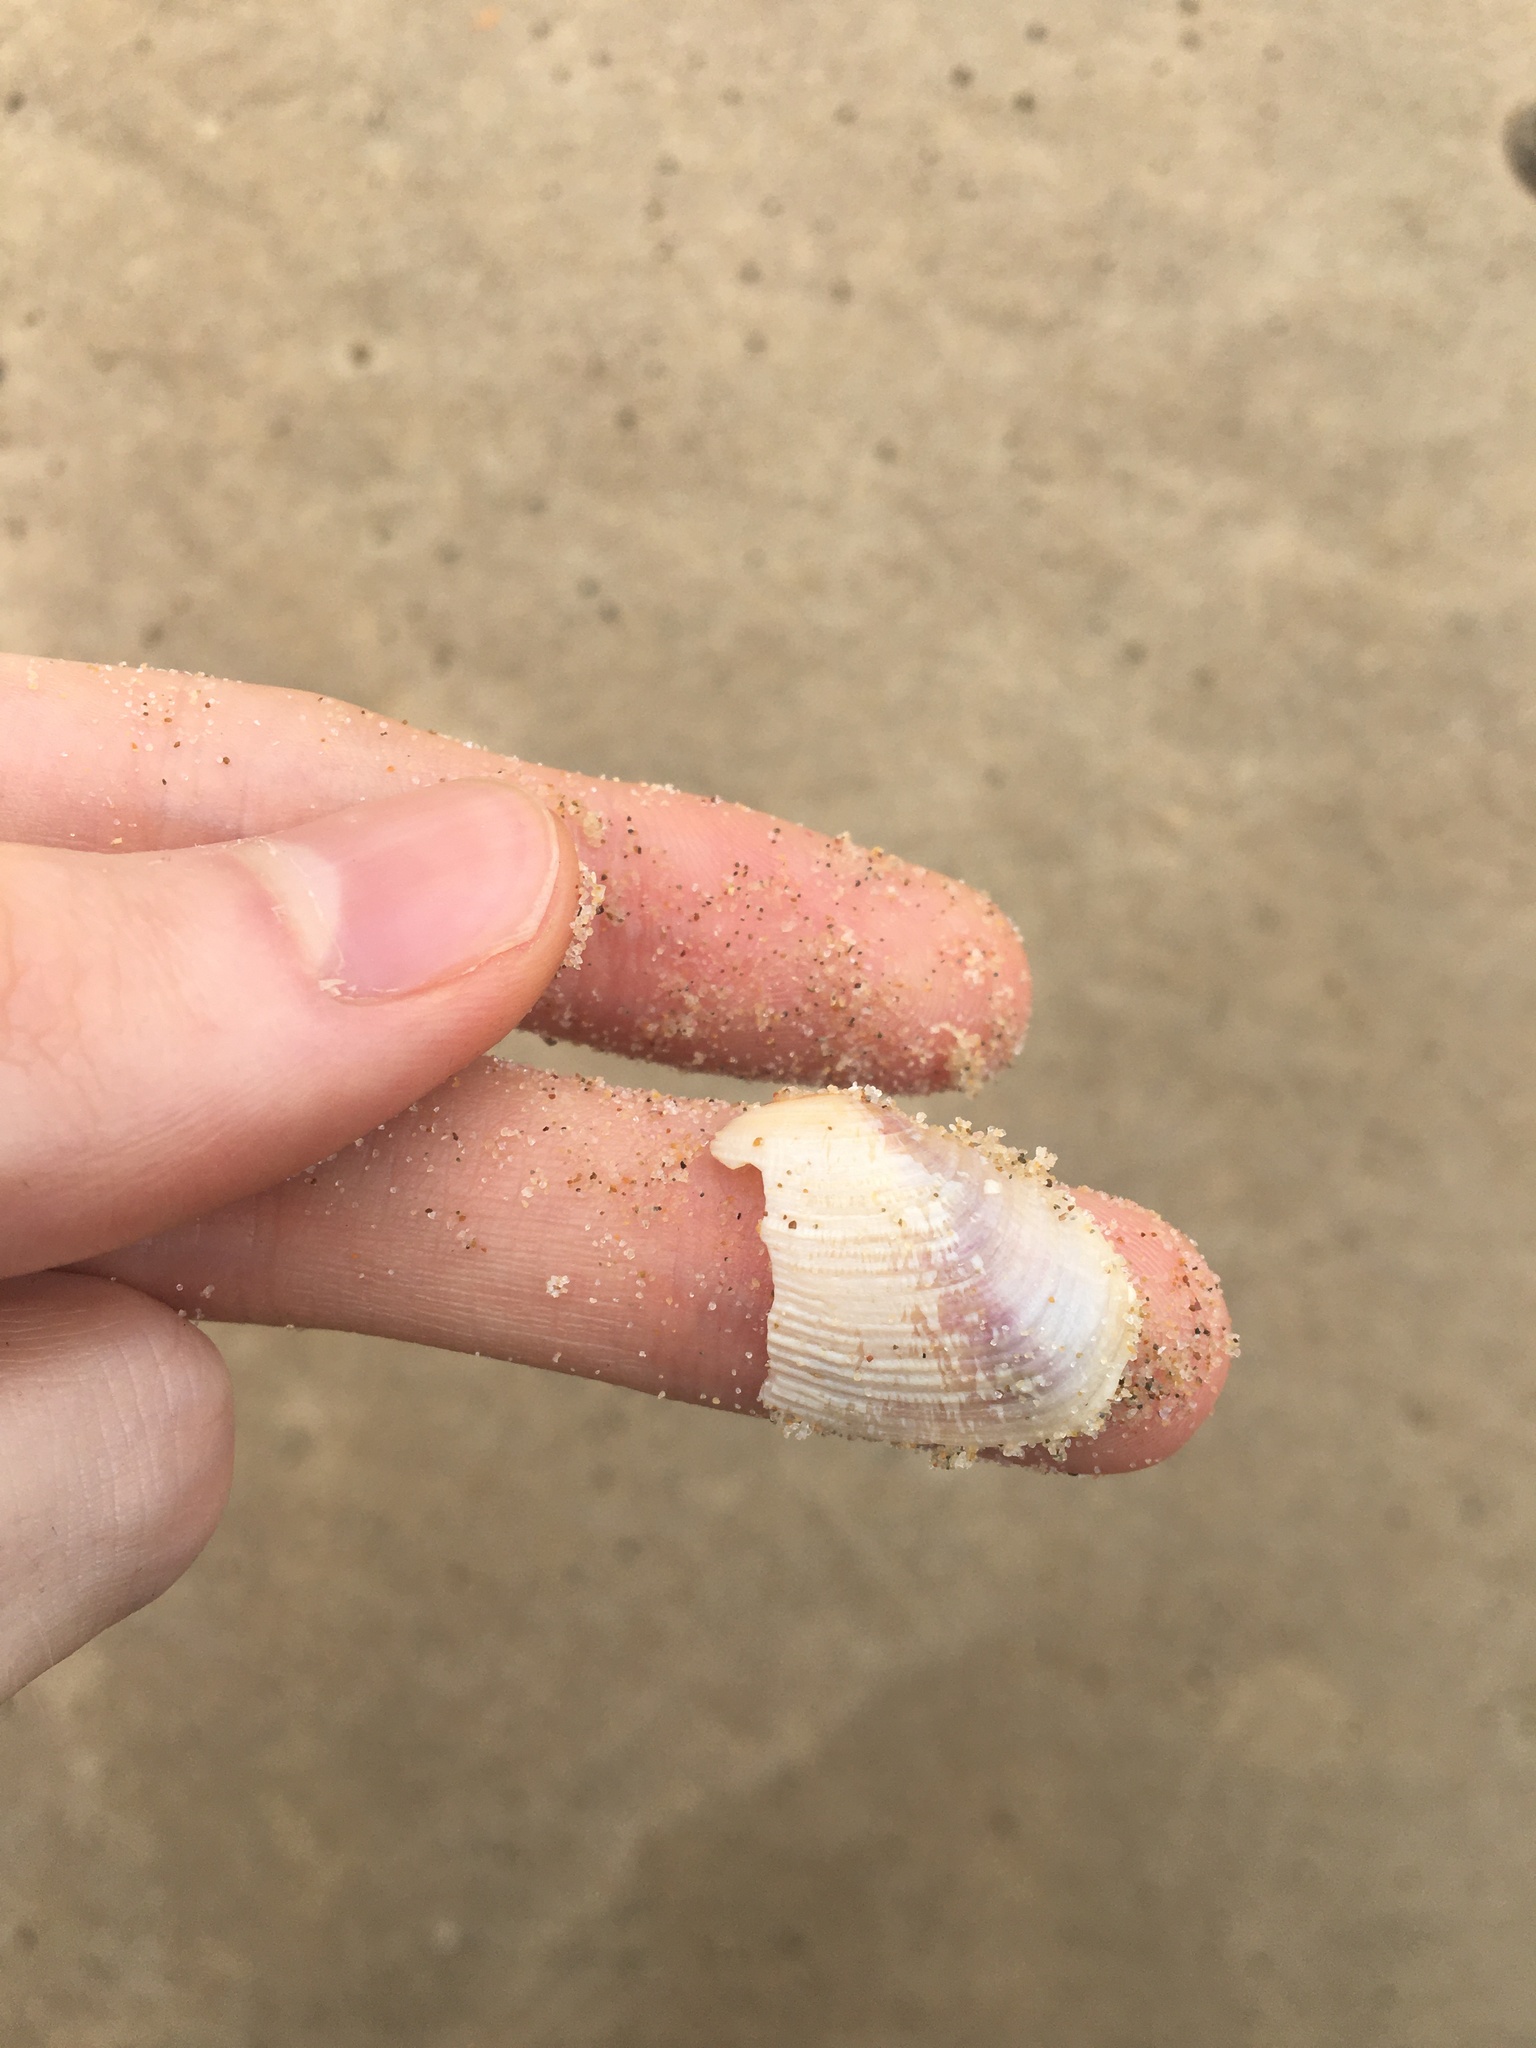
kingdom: Animalia
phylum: Mollusca
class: Bivalvia
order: Venerida
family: Veneridae
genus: Irus
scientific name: Irus crenatus
